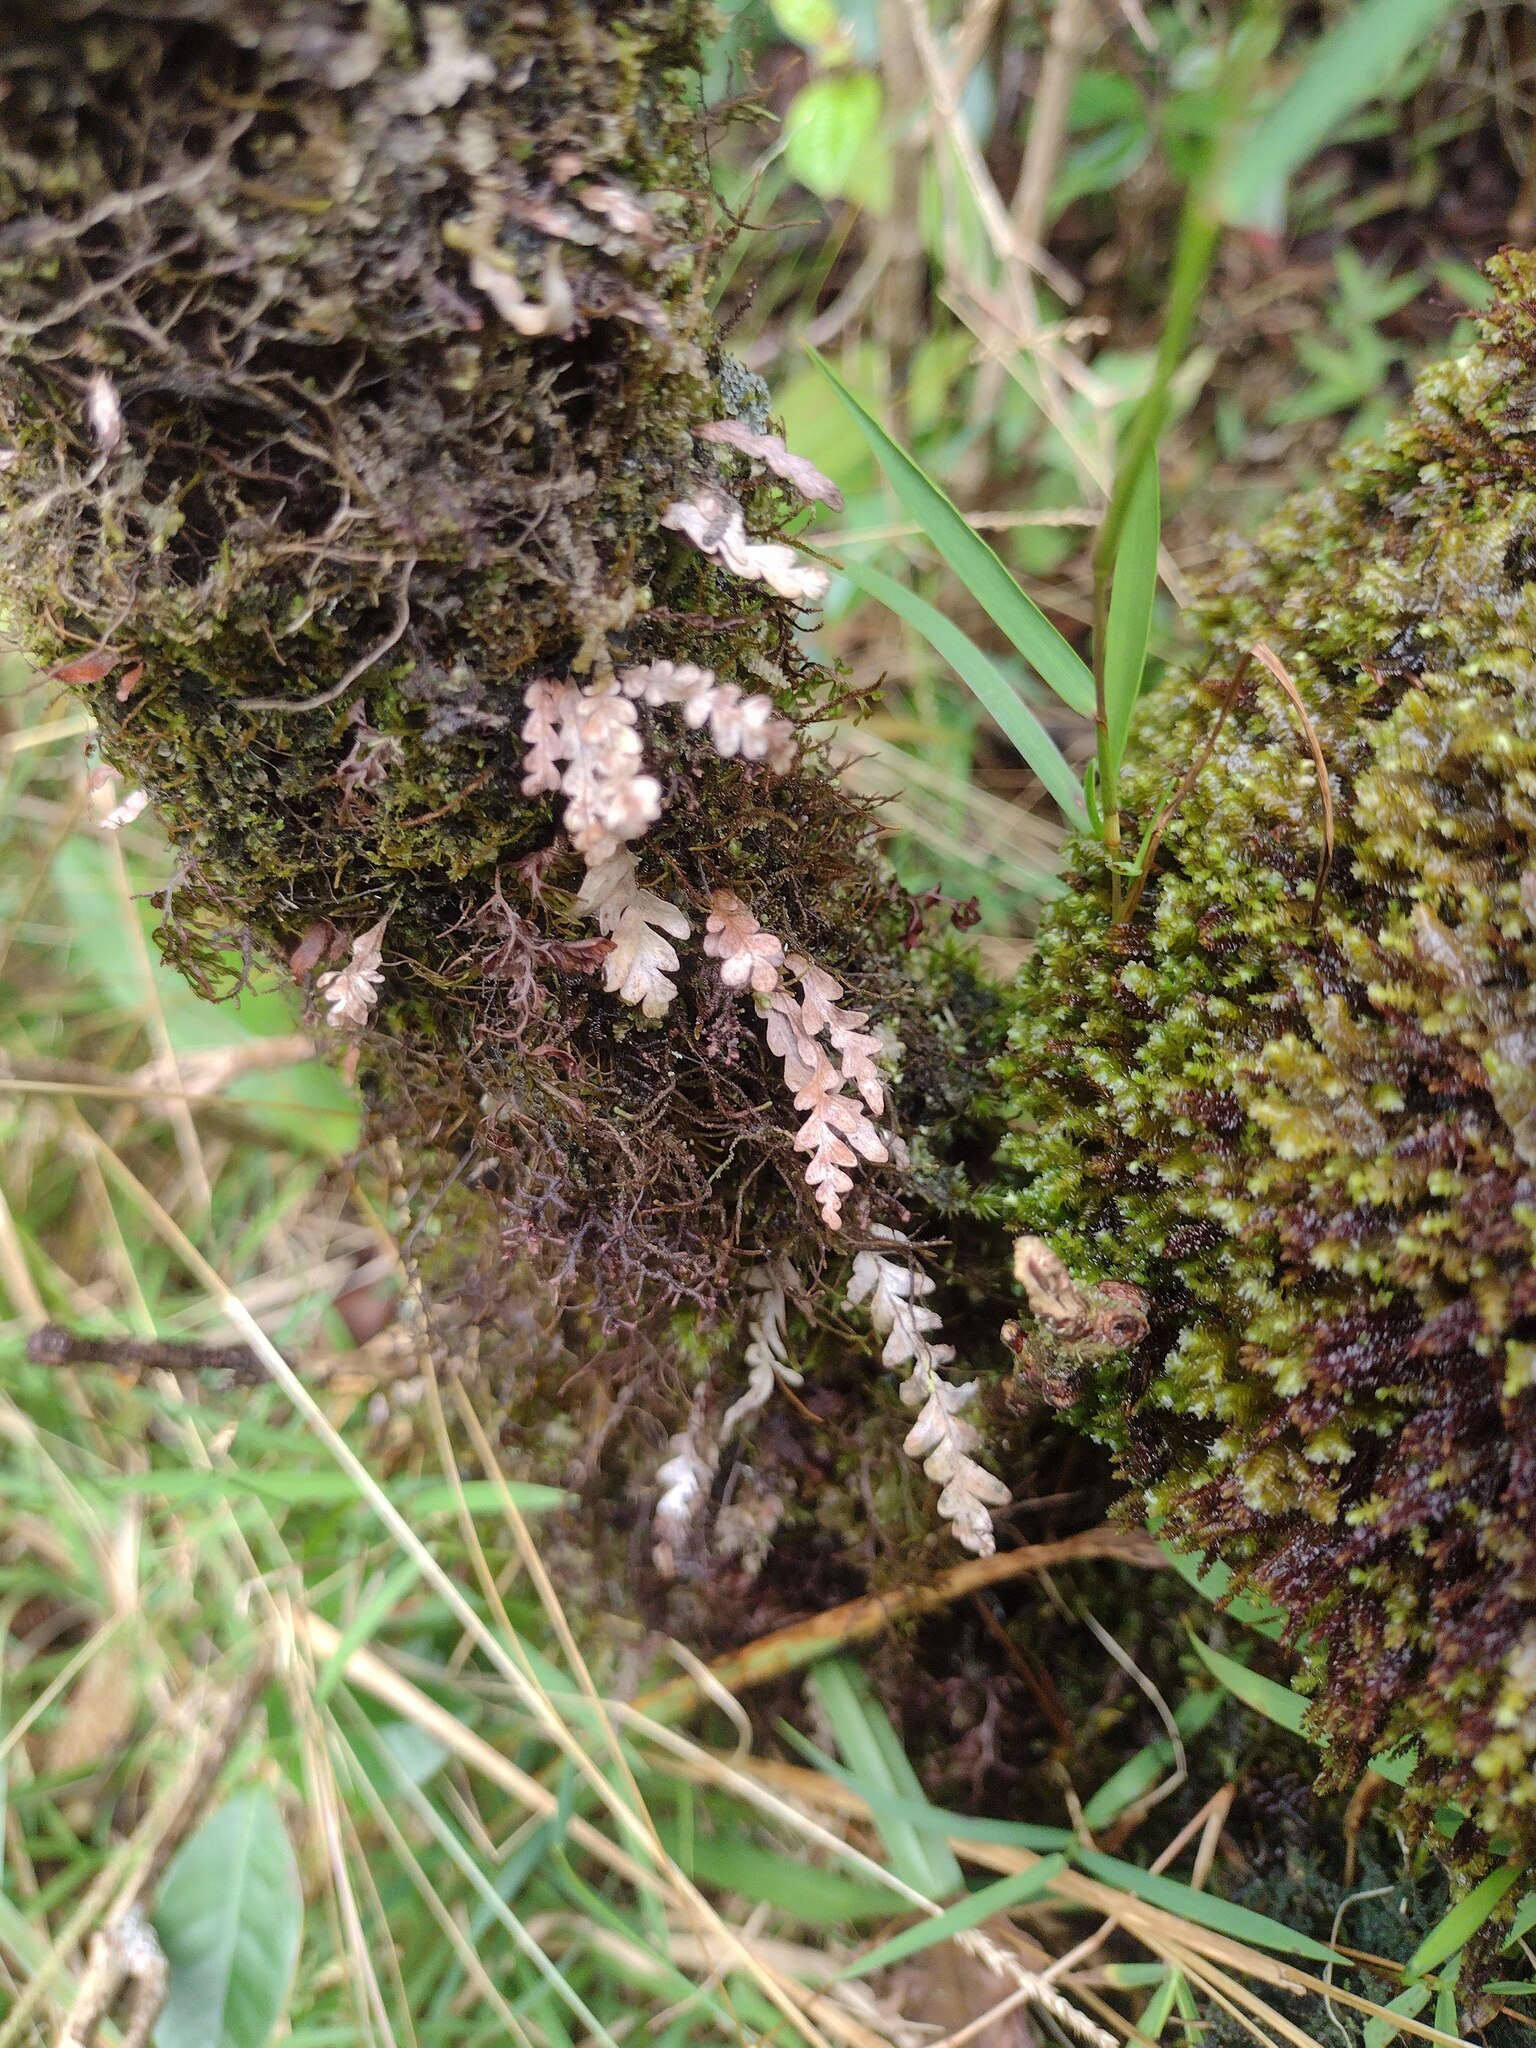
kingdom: Plantae
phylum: Tracheophyta
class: Polypodiopsida
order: Polypodiales
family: Polypodiaceae
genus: Adenophorus
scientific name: Adenophorus pinnatifidus
